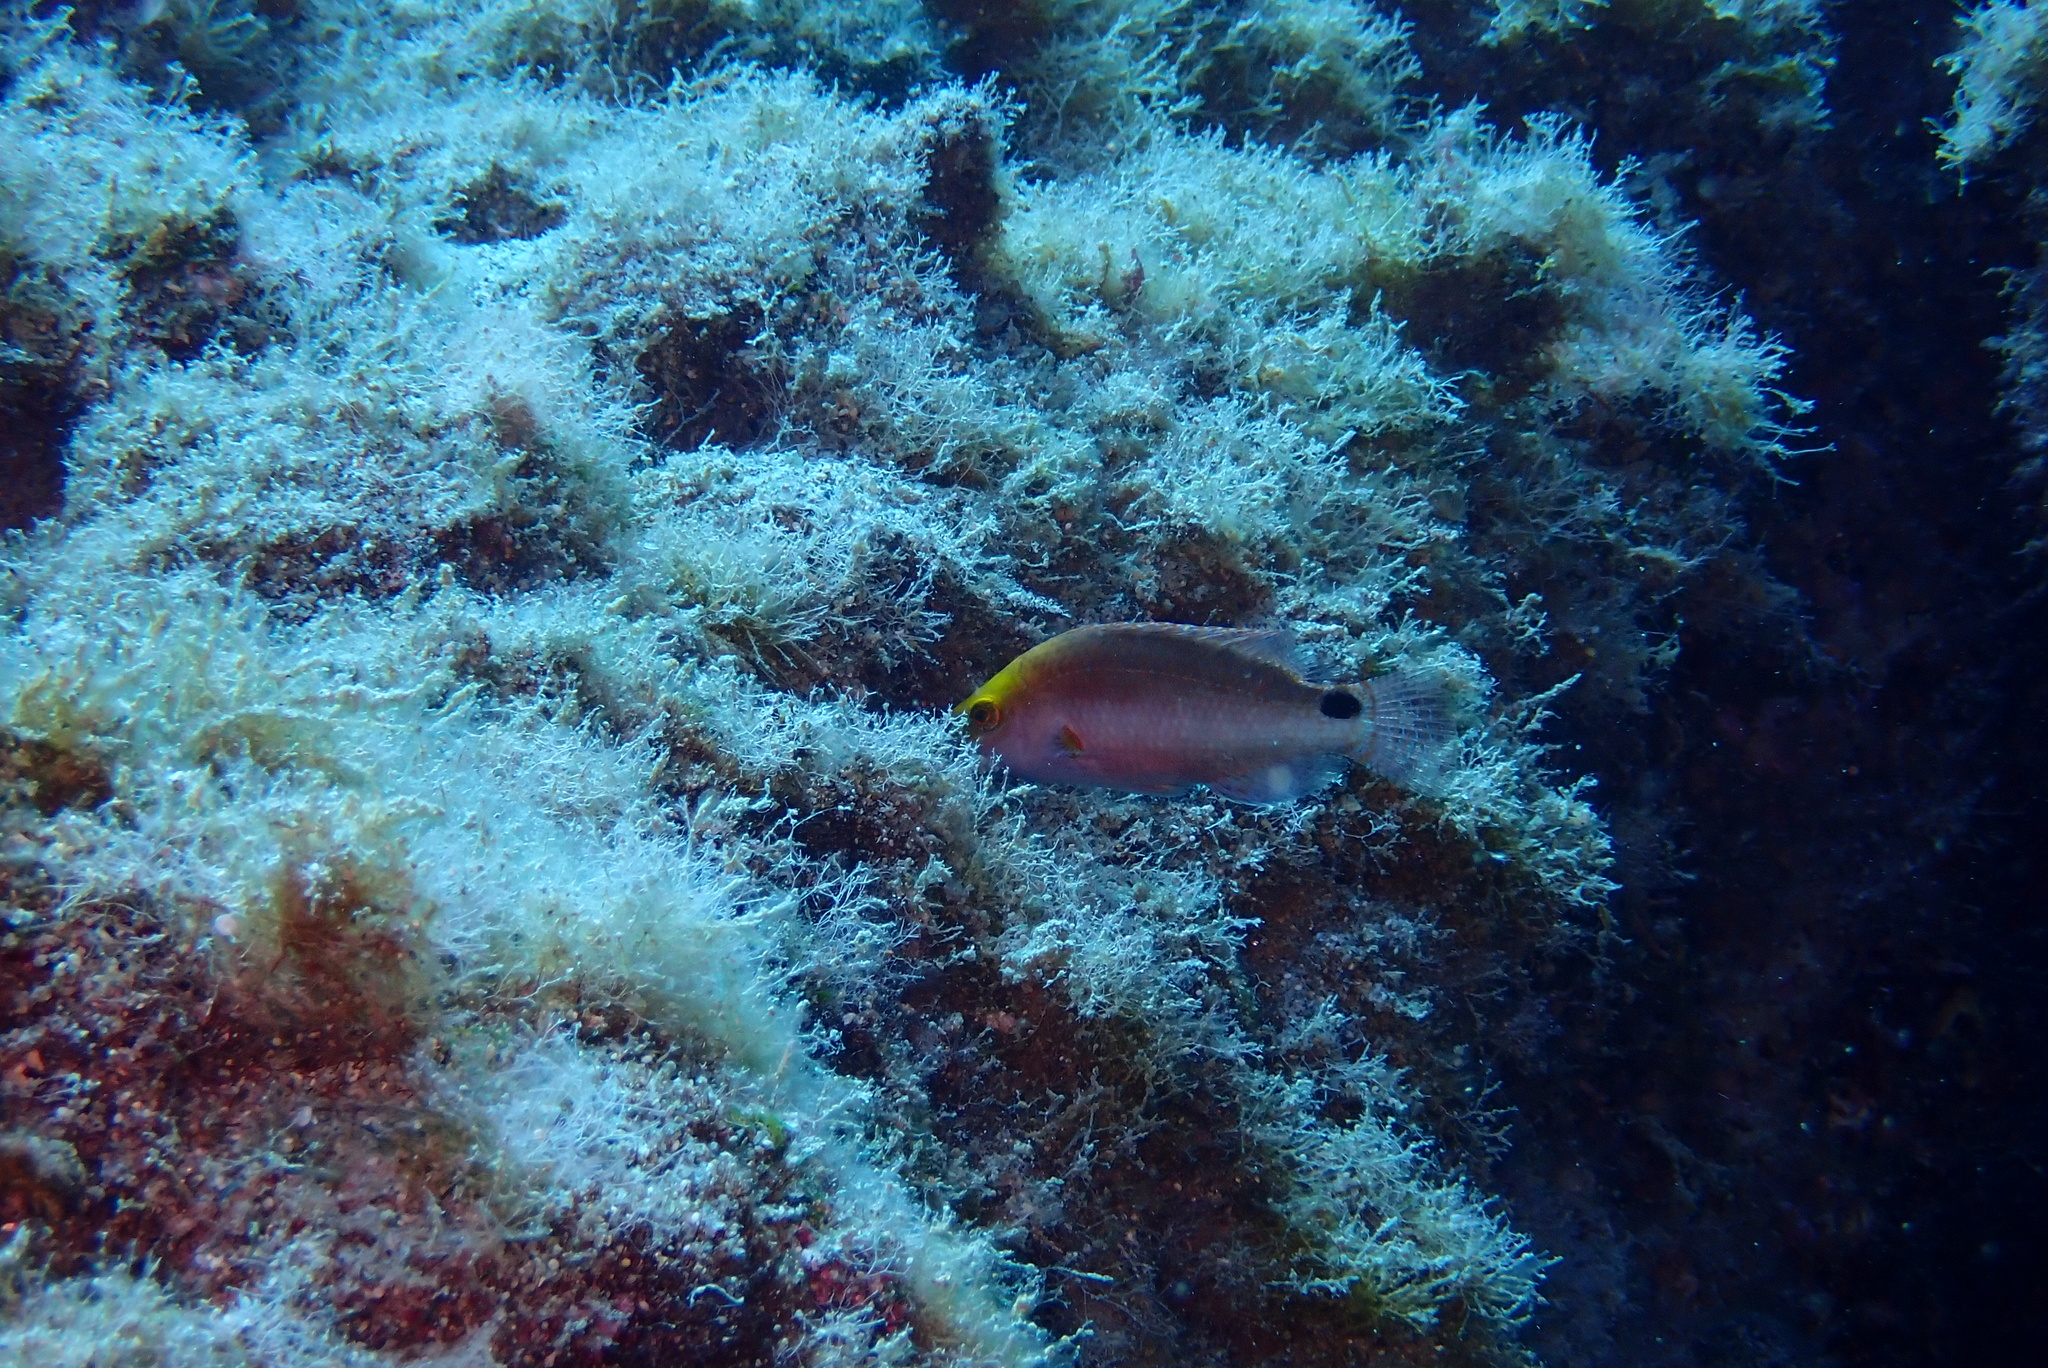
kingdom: Animalia
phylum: Chordata
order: Perciformes
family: Labridae
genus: Symphodus
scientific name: Symphodus mediterraneus
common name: Axillary wrasse
